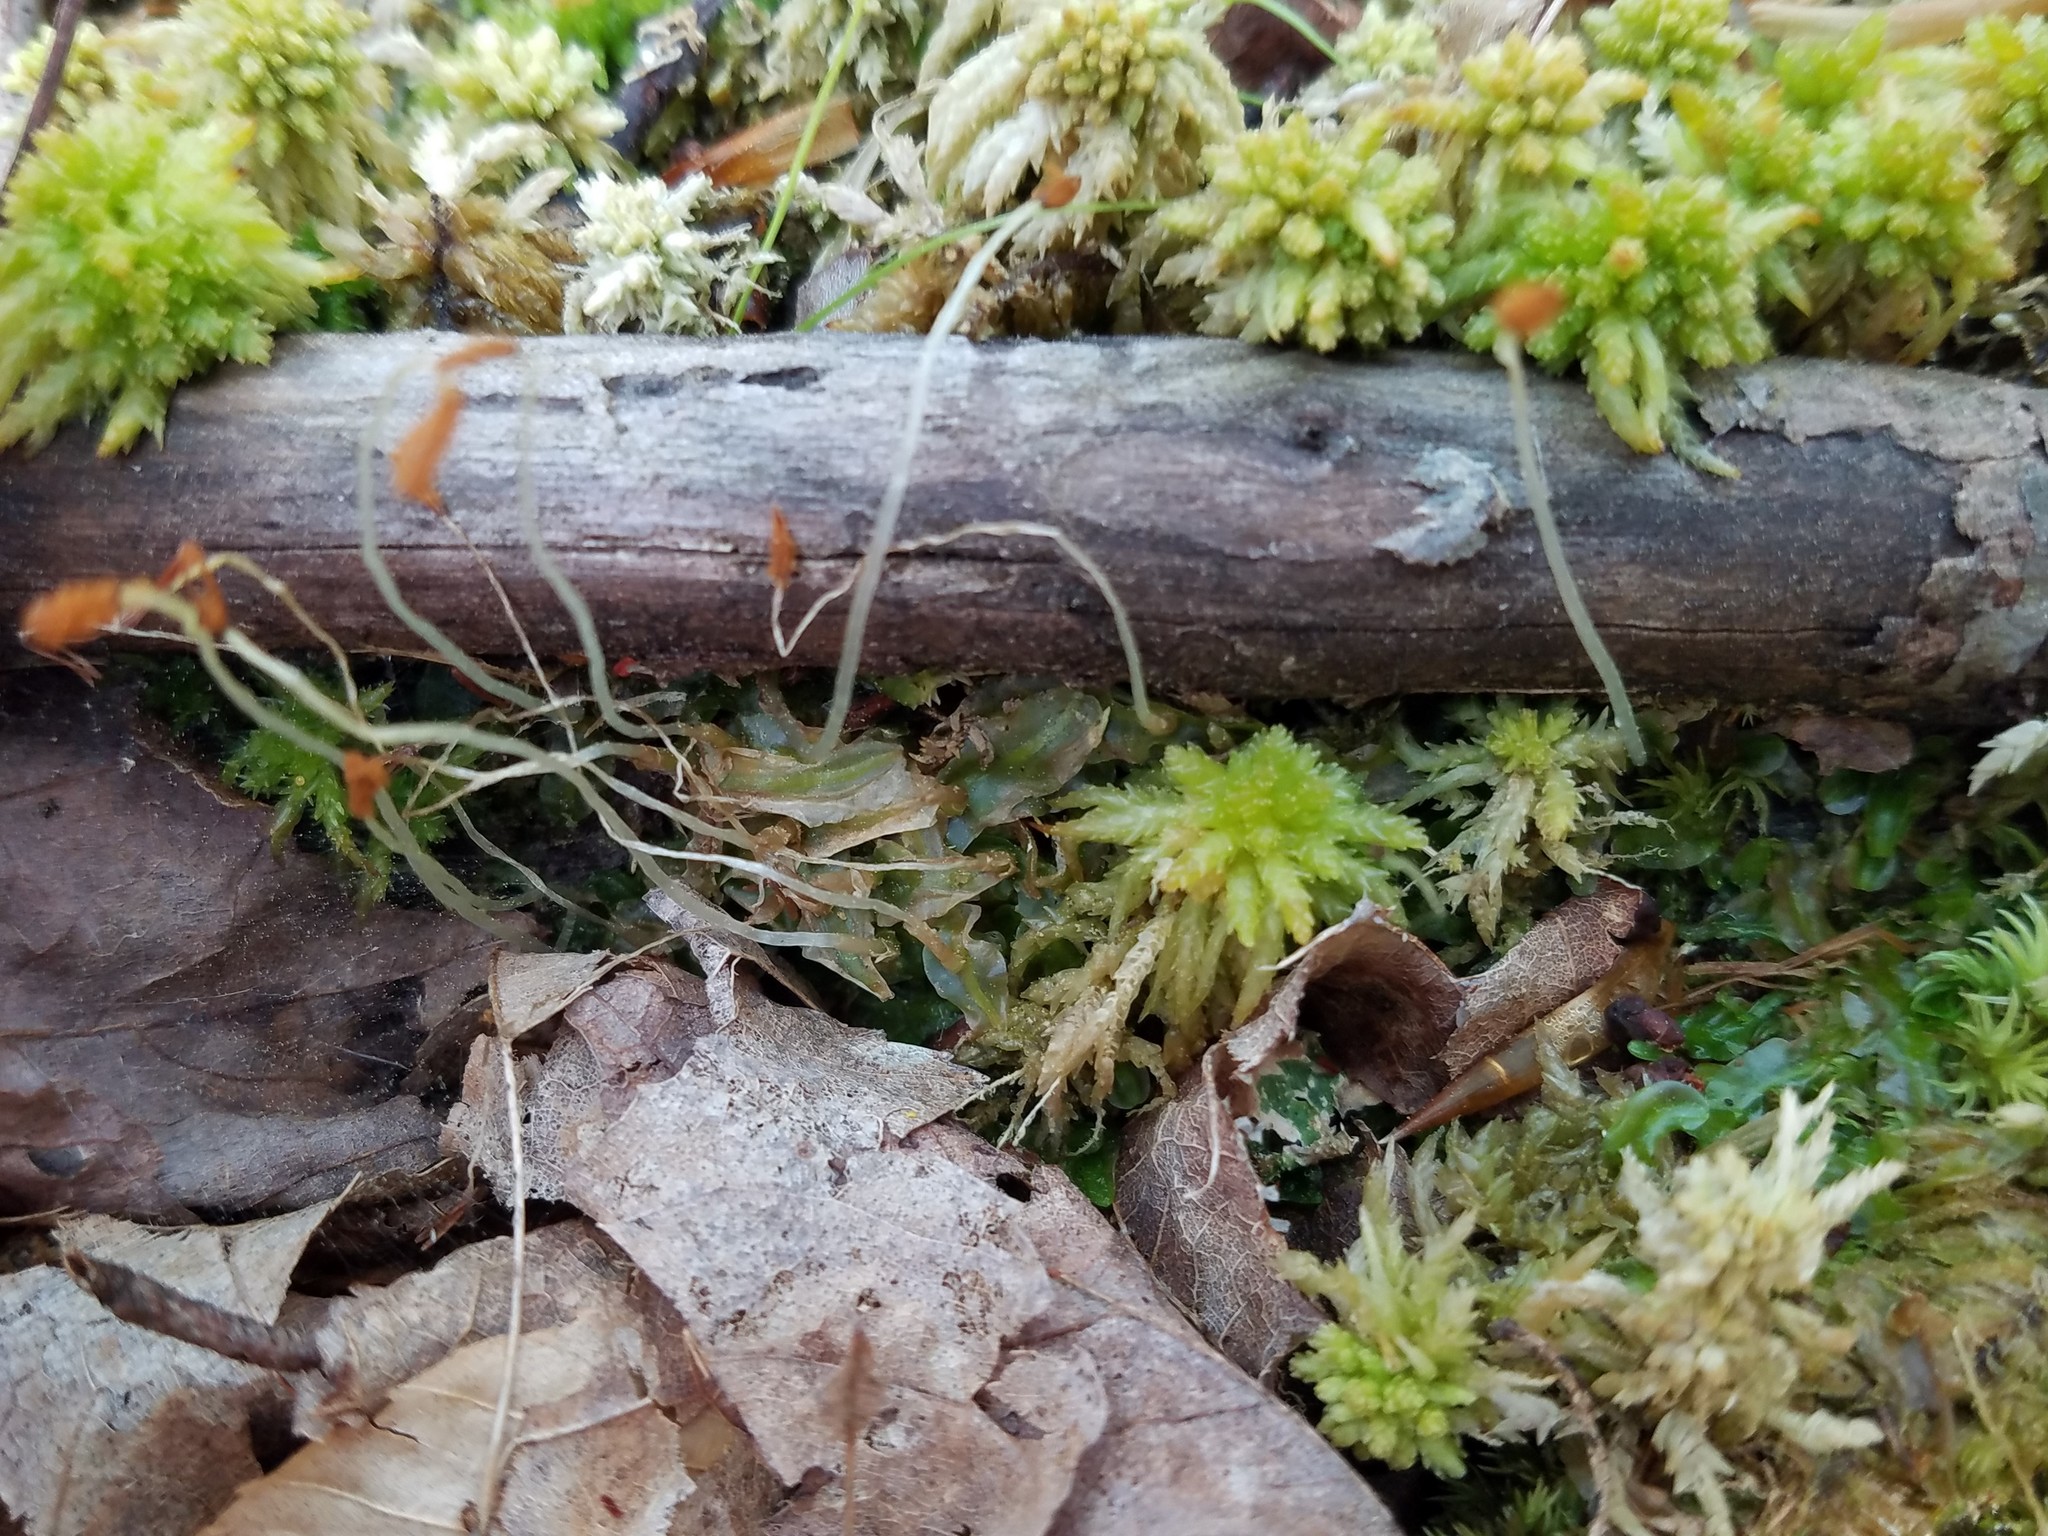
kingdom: Plantae
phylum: Marchantiophyta
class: Jungermanniopsida
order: Pallaviciniales
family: Pallaviciniaceae
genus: Pallavicinia
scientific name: Pallavicinia lyellii
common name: Veilwort
